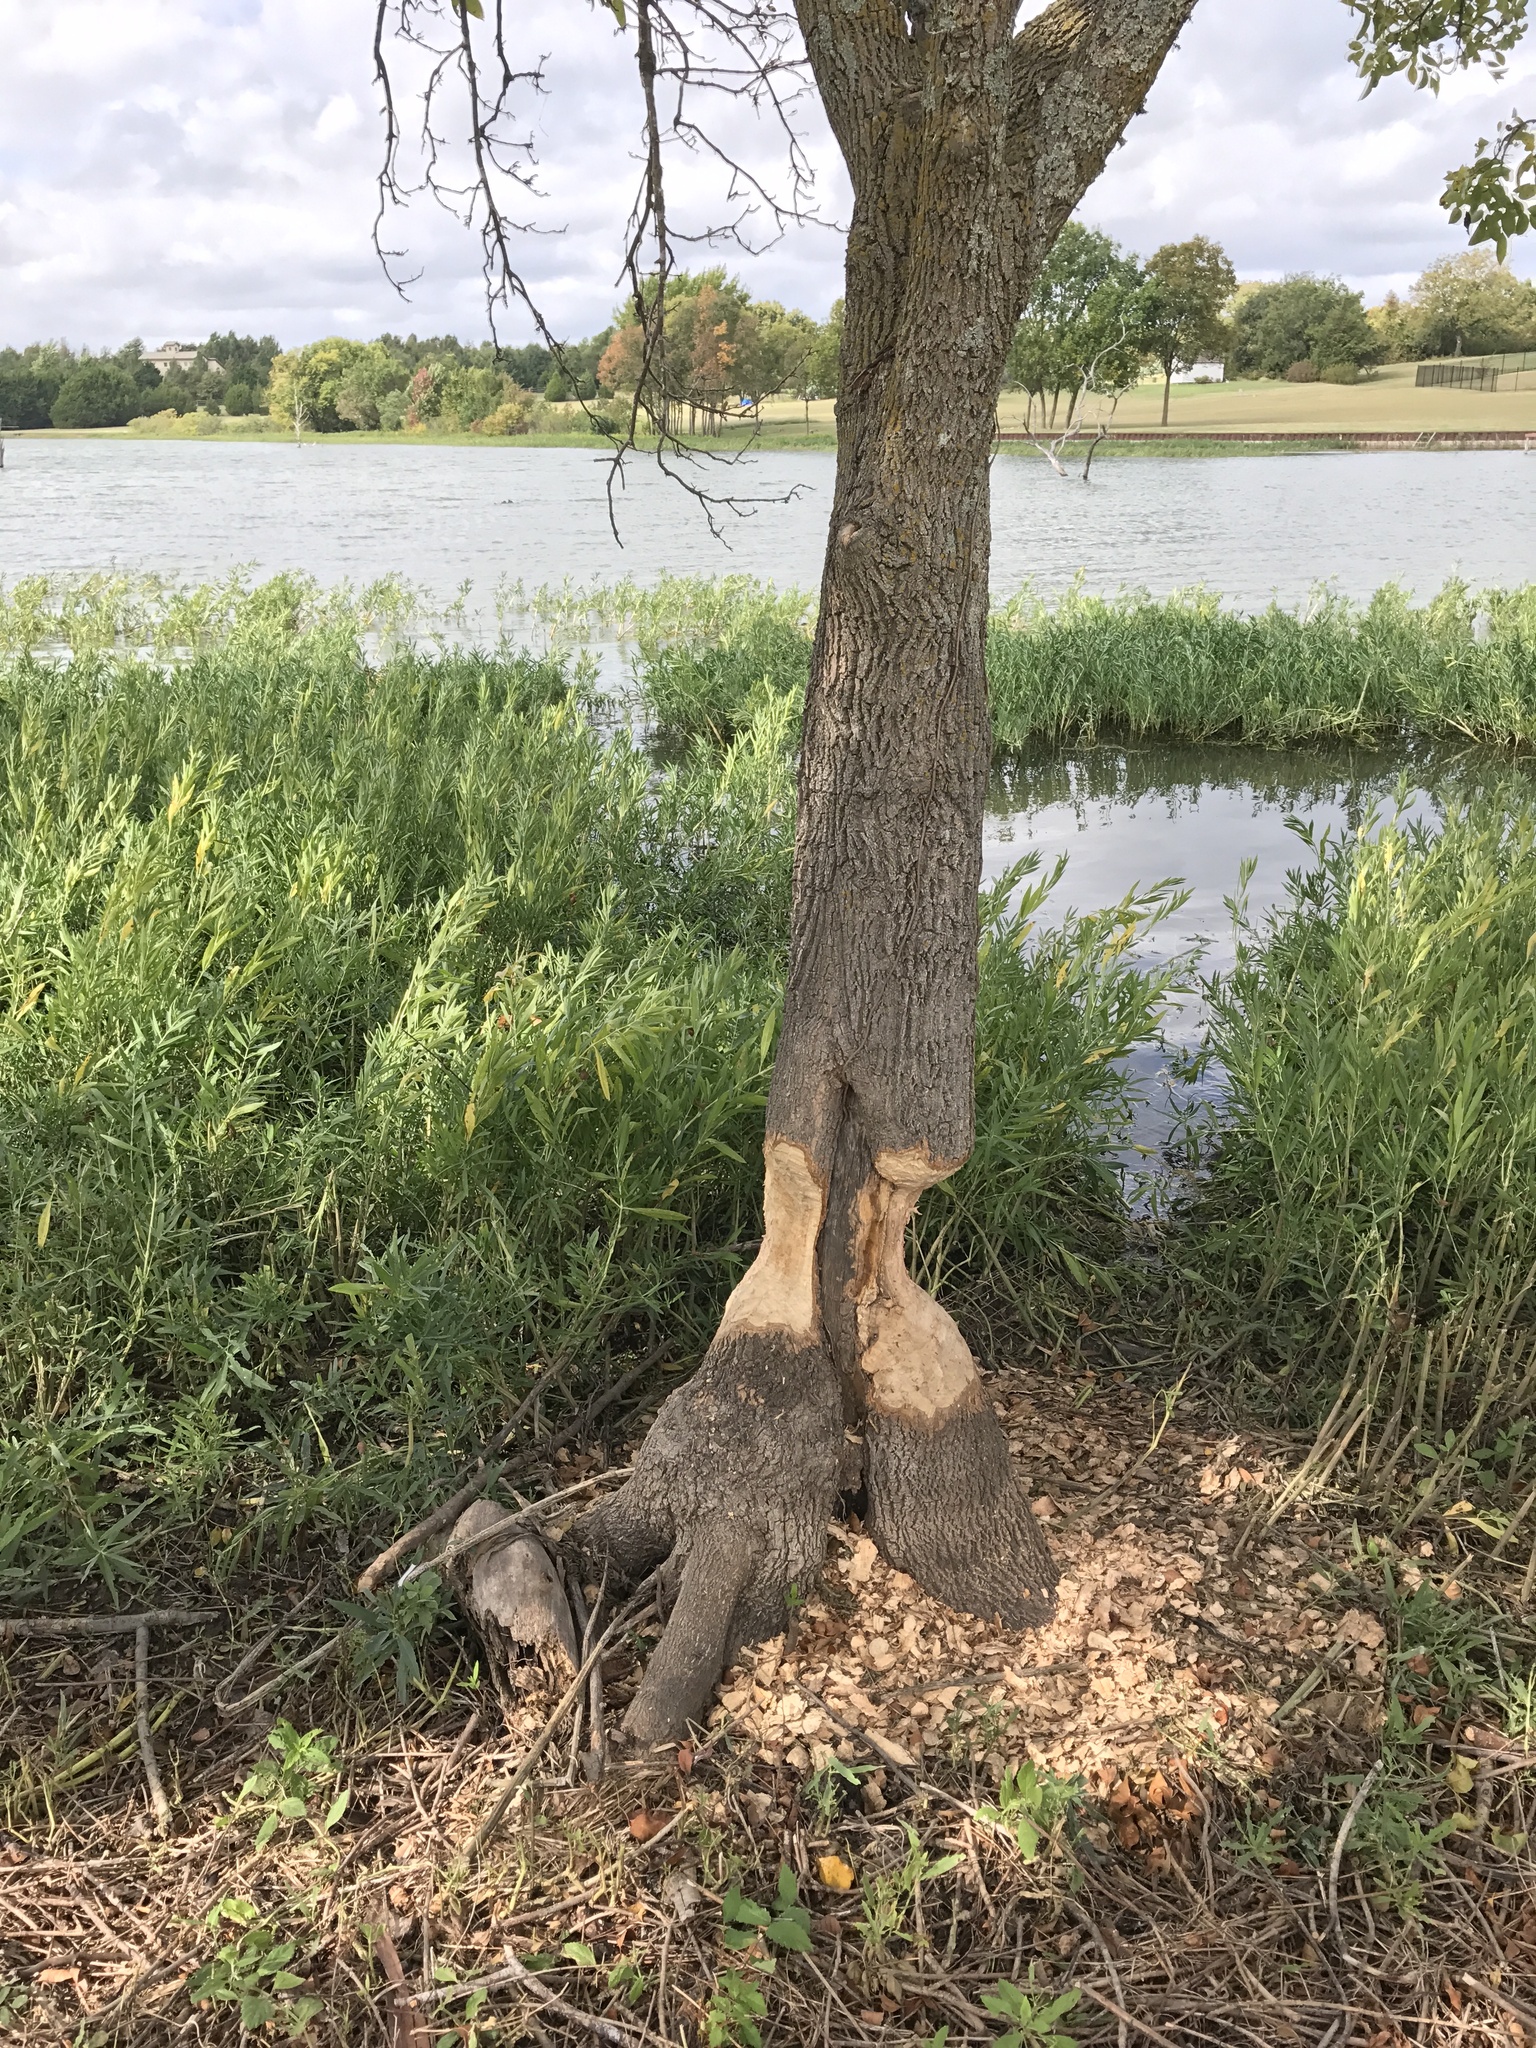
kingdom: Animalia
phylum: Chordata
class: Mammalia
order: Rodentia
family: Castoridae
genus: Castor
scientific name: Castor canadensis
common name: American beaver
